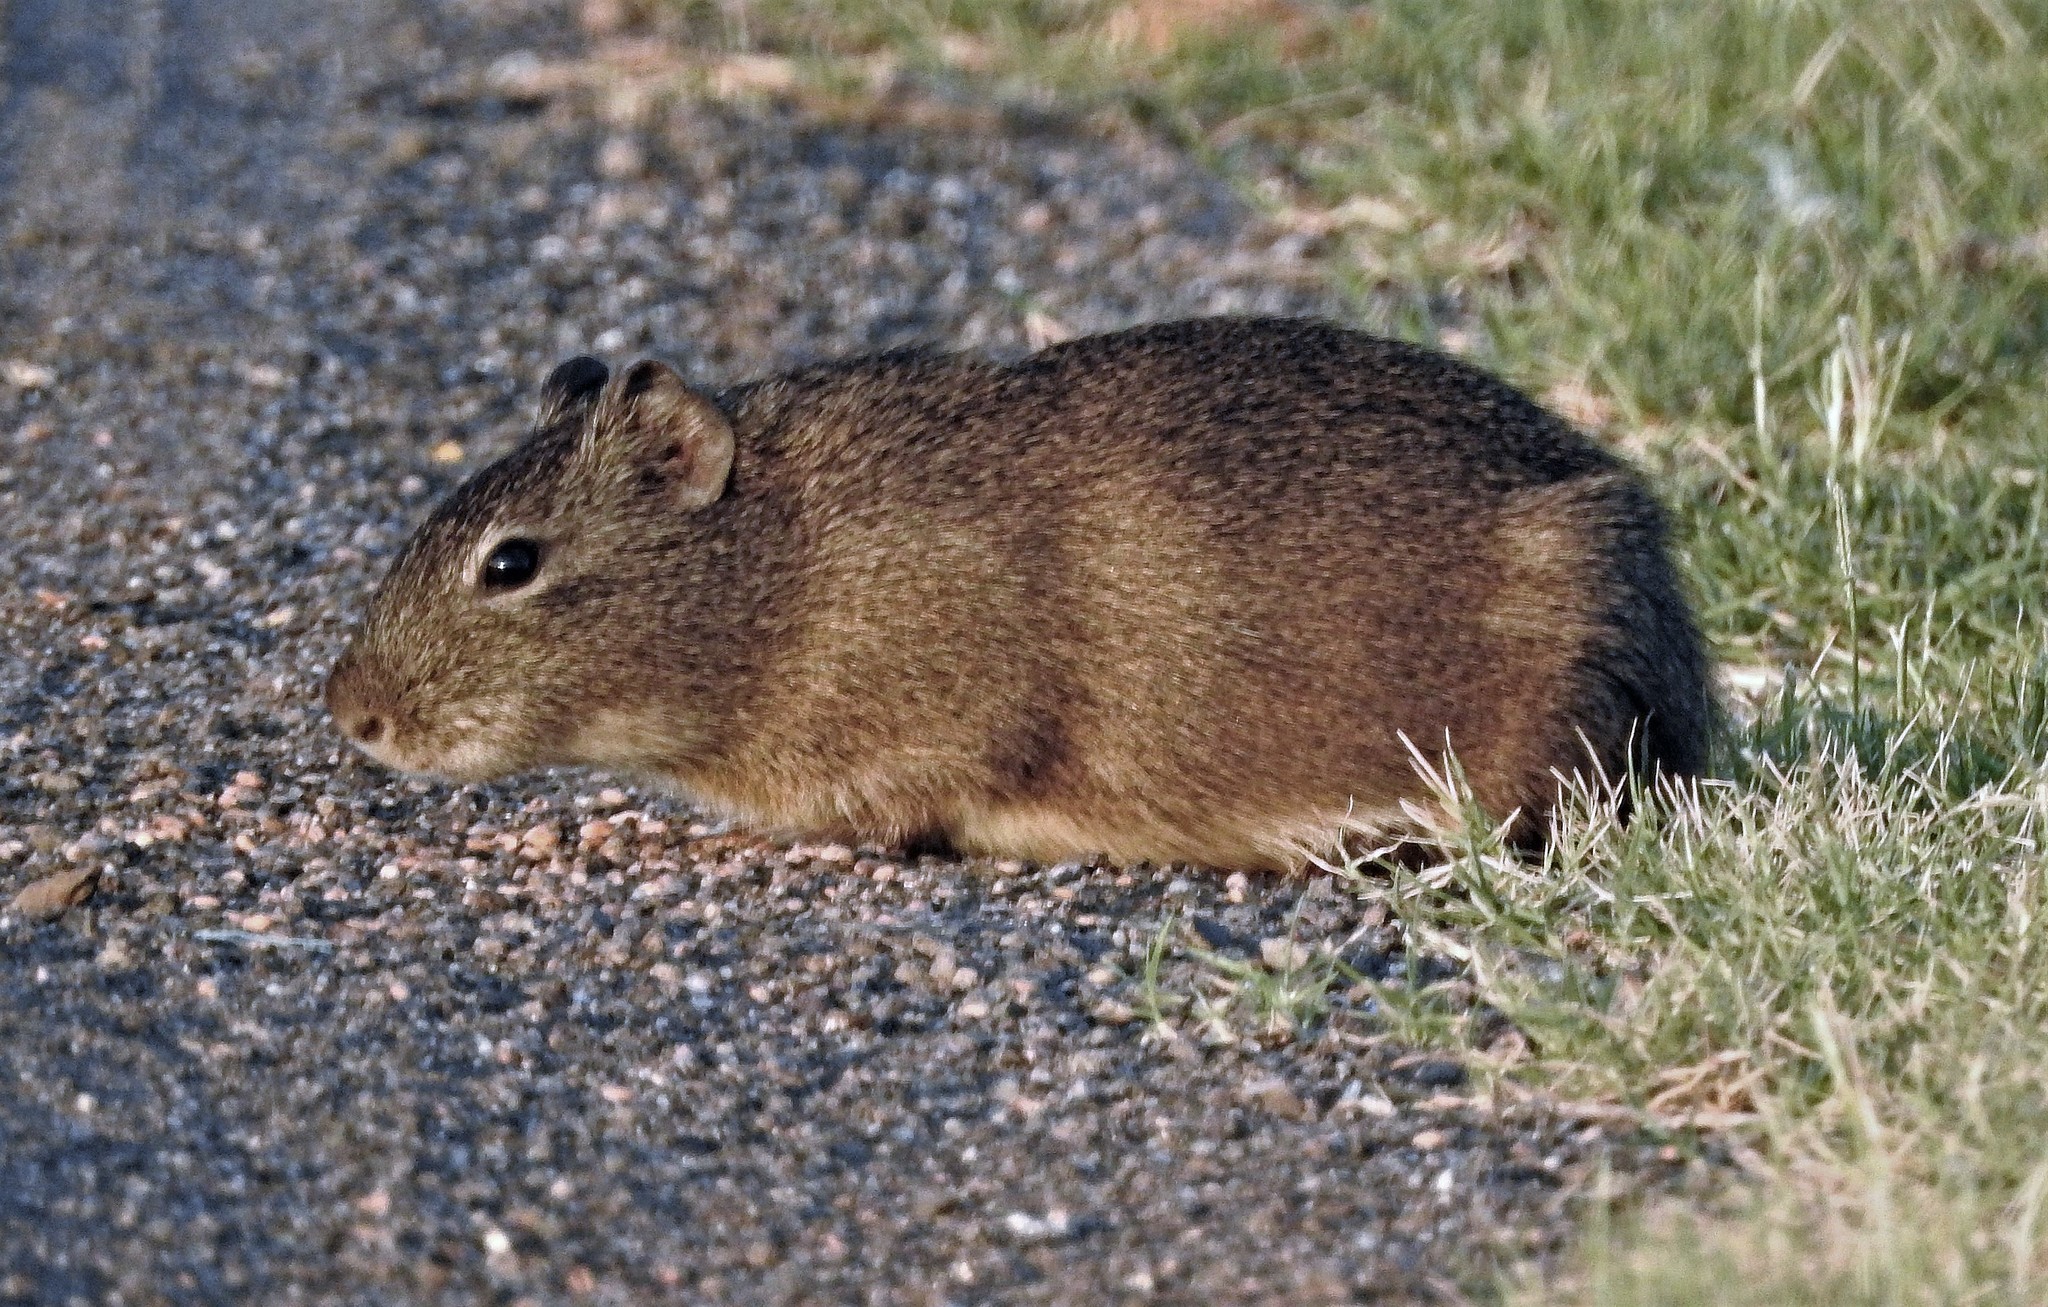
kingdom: Animalia
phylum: Chordata
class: Mammalia
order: Rodentia
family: Caviidae
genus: Cavia
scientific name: Cavia aperea
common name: Brazilian guinea pig
